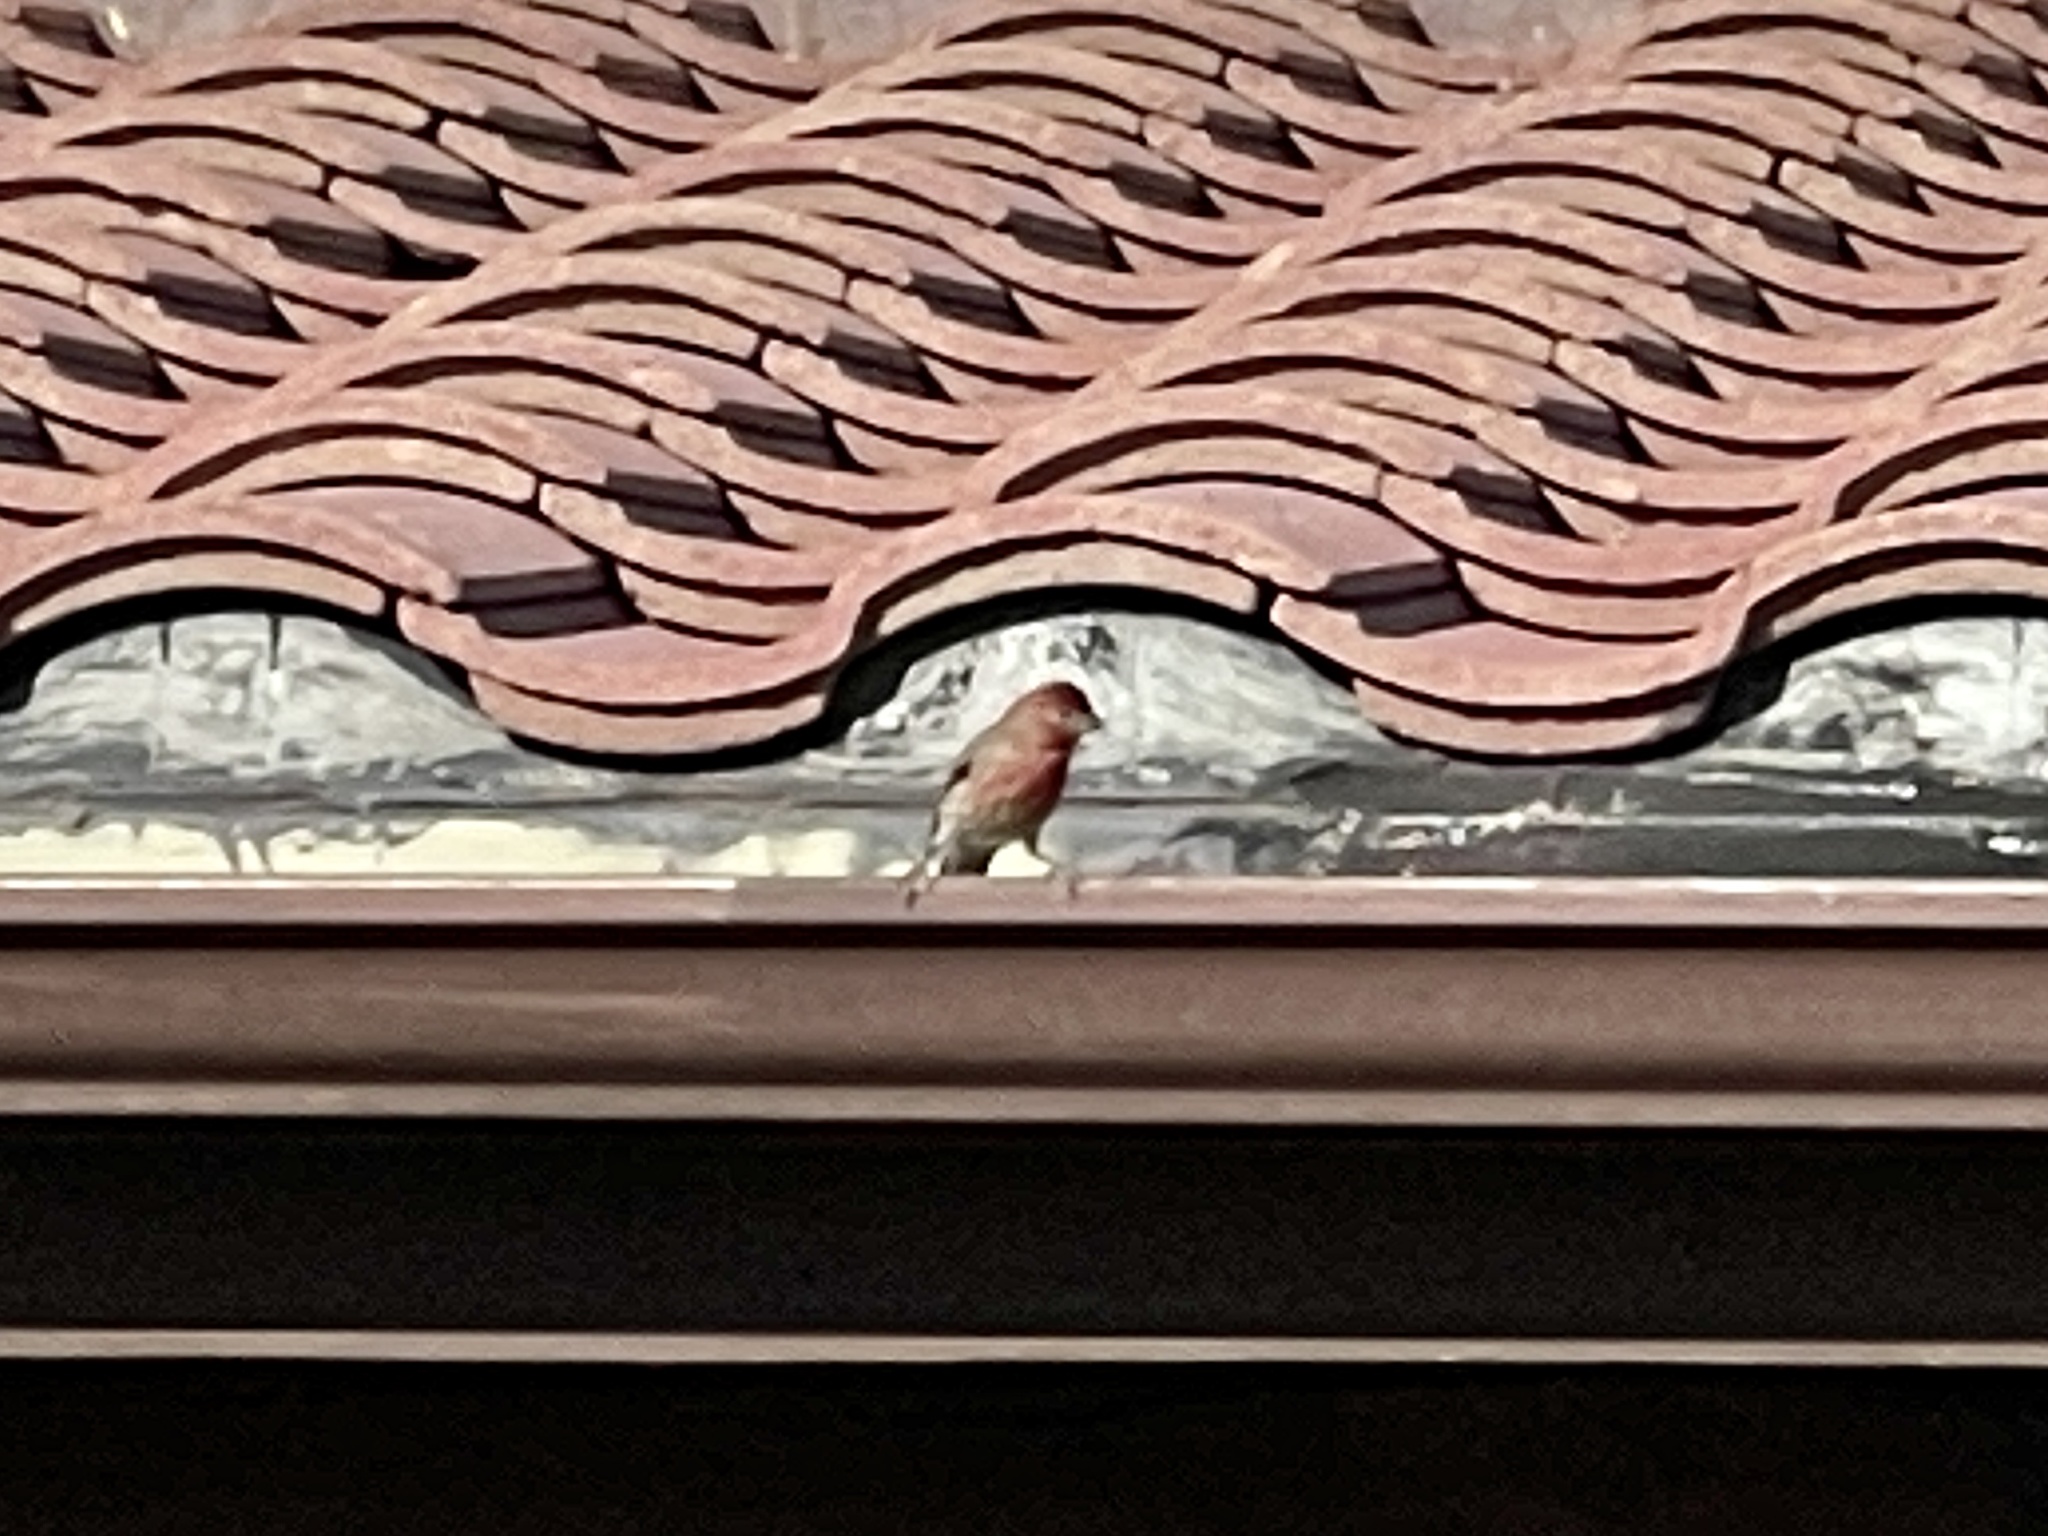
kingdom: Animalia
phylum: Chordata
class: Aves
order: Passeriformes
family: Fringillidae
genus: Haemorhous
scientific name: Haemorhous mexicanus
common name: House finch
